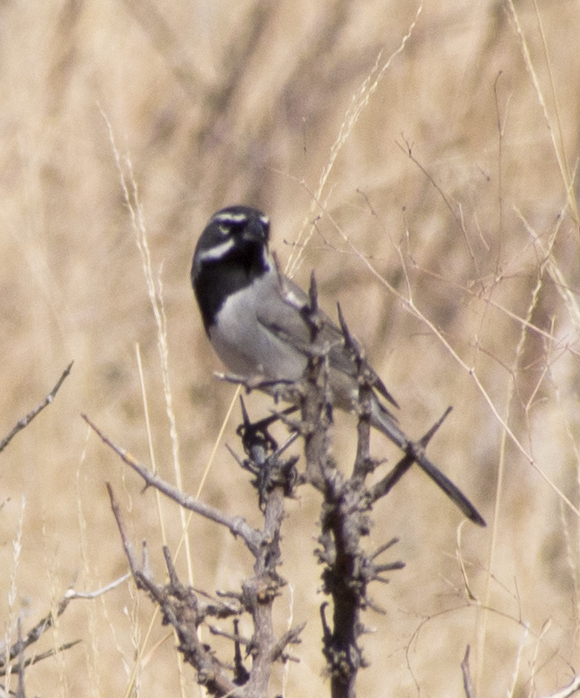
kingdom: Animalia
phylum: Chordata
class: Aves
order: Passeriformes
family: Passerellidae
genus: Amphispiza
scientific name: Amphispiza bilineata
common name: Black-throated sparrow
